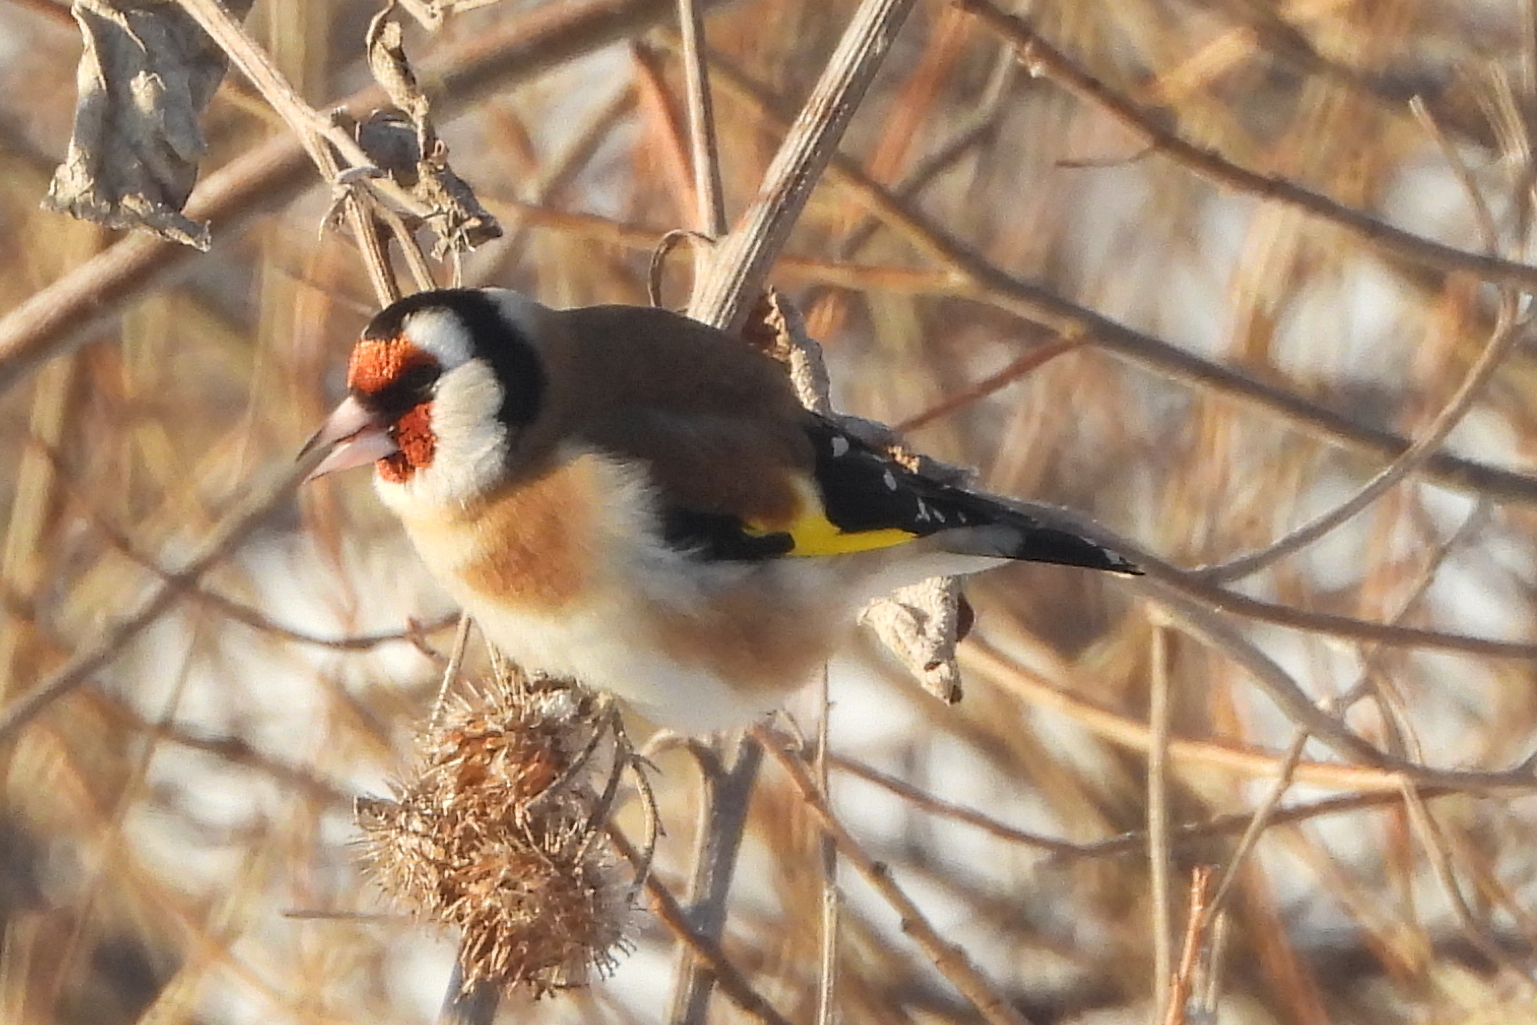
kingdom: Animalia
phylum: Chordata
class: Aves
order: Passeriformes
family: Fringillidae
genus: Carduelis
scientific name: Carduelis carduelis
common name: European goldfinch
